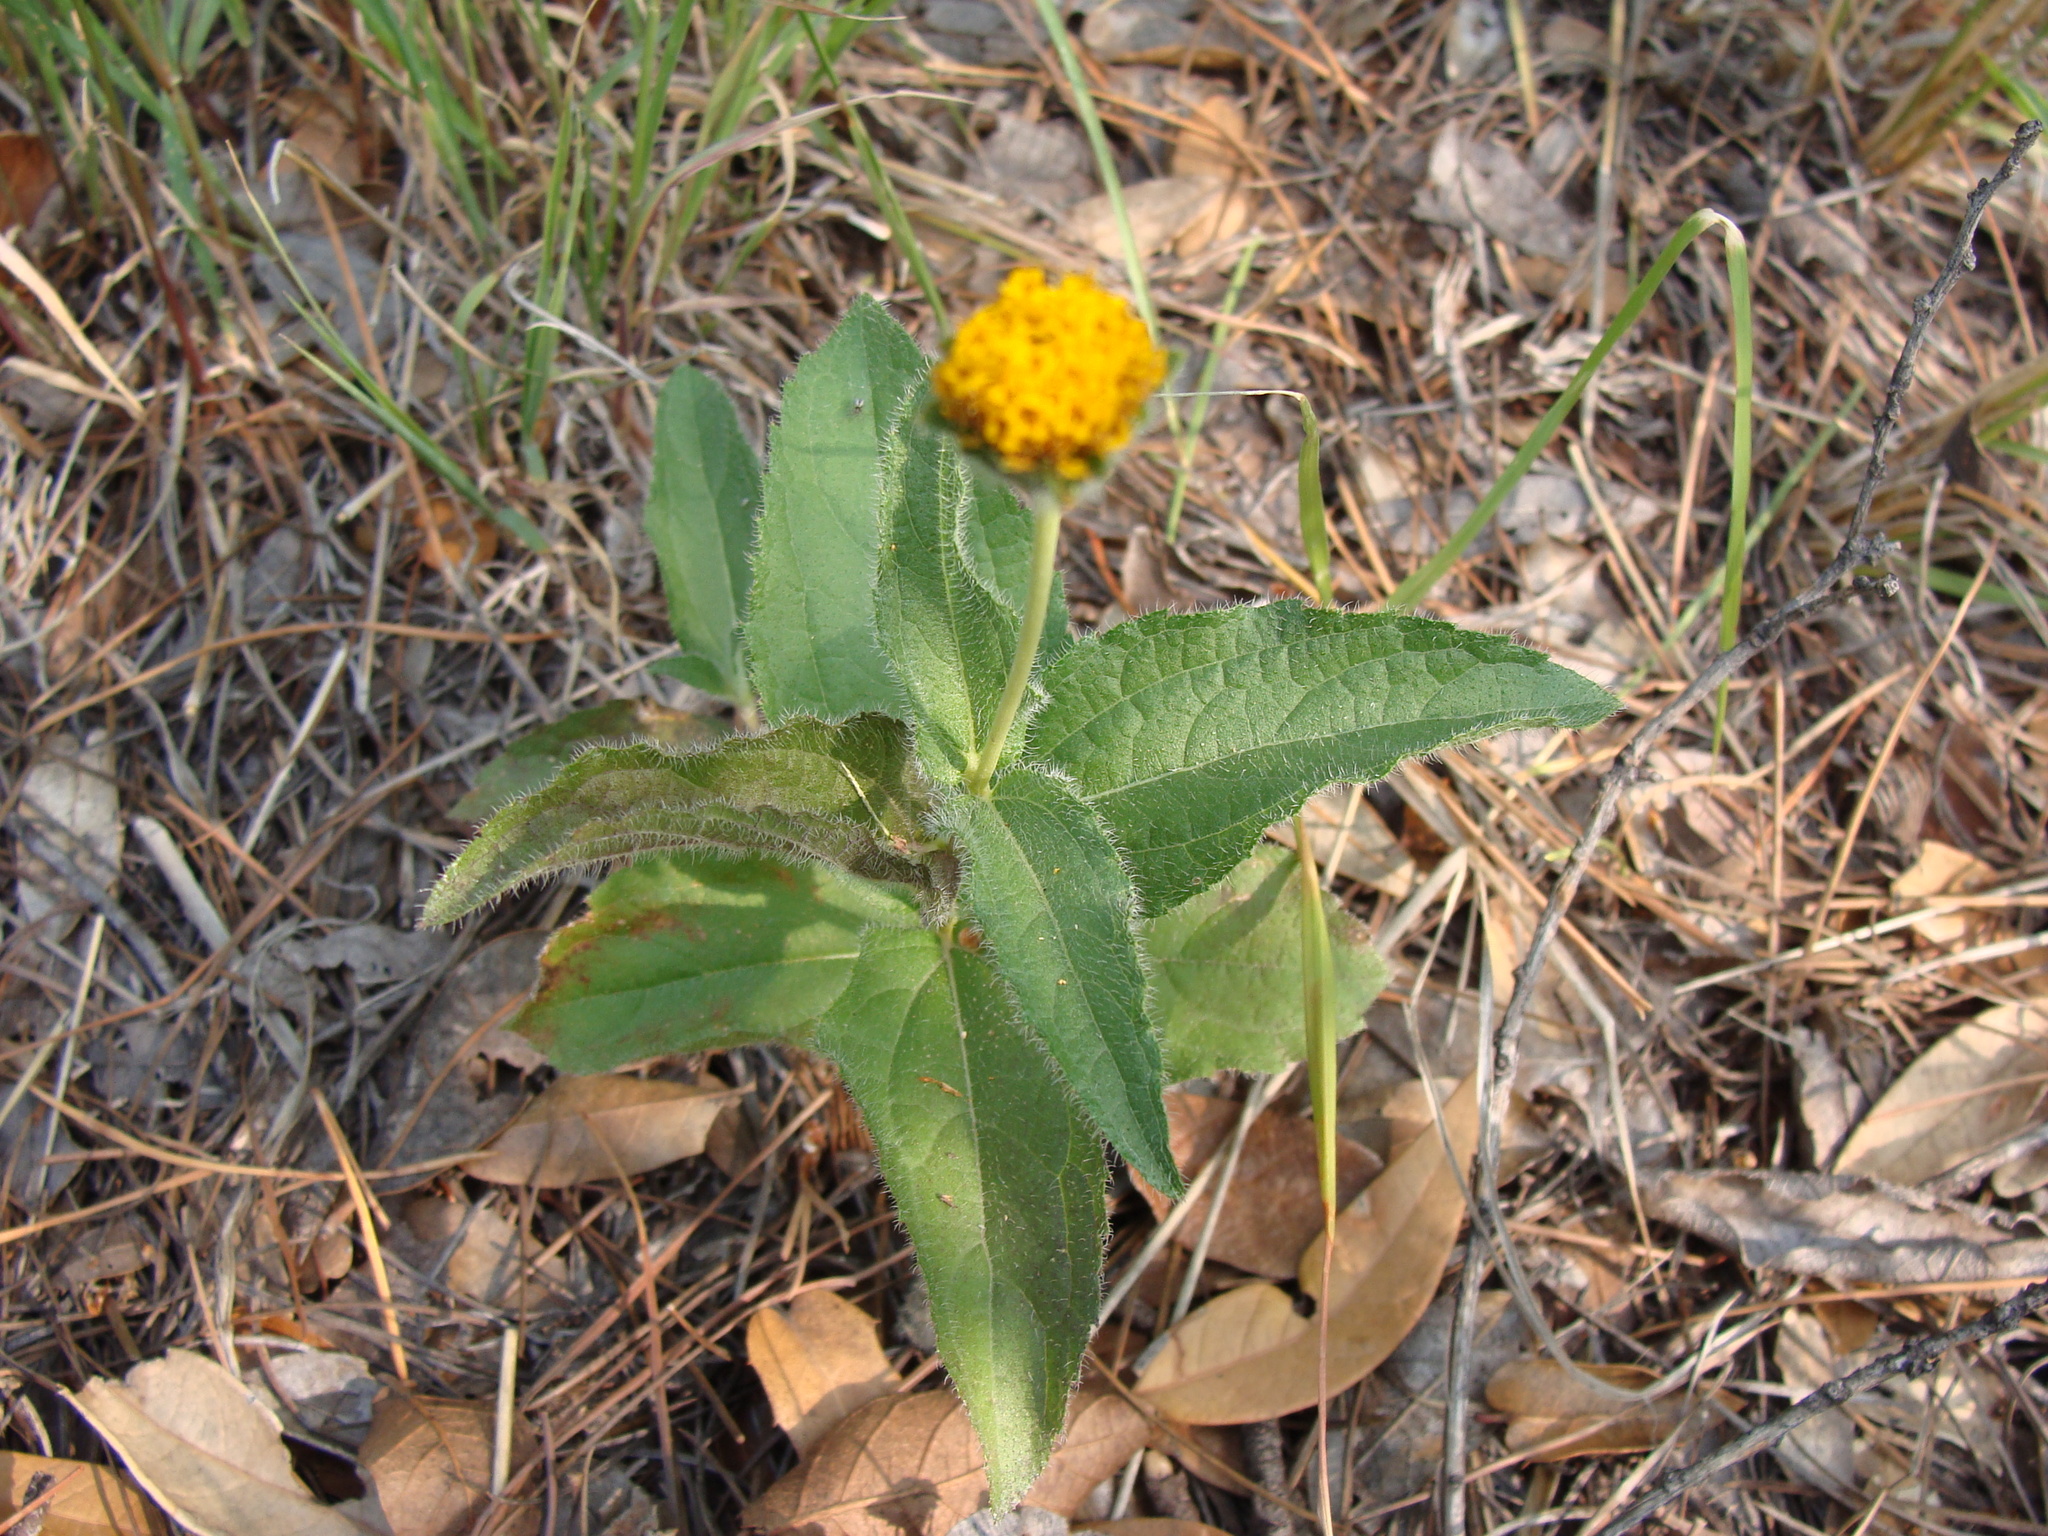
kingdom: Plantae
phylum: Tracheophyta
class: Magnoliopsida
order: Asterales
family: Asteraceae
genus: Lasianthaea
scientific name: Lasianthaea podocephala
